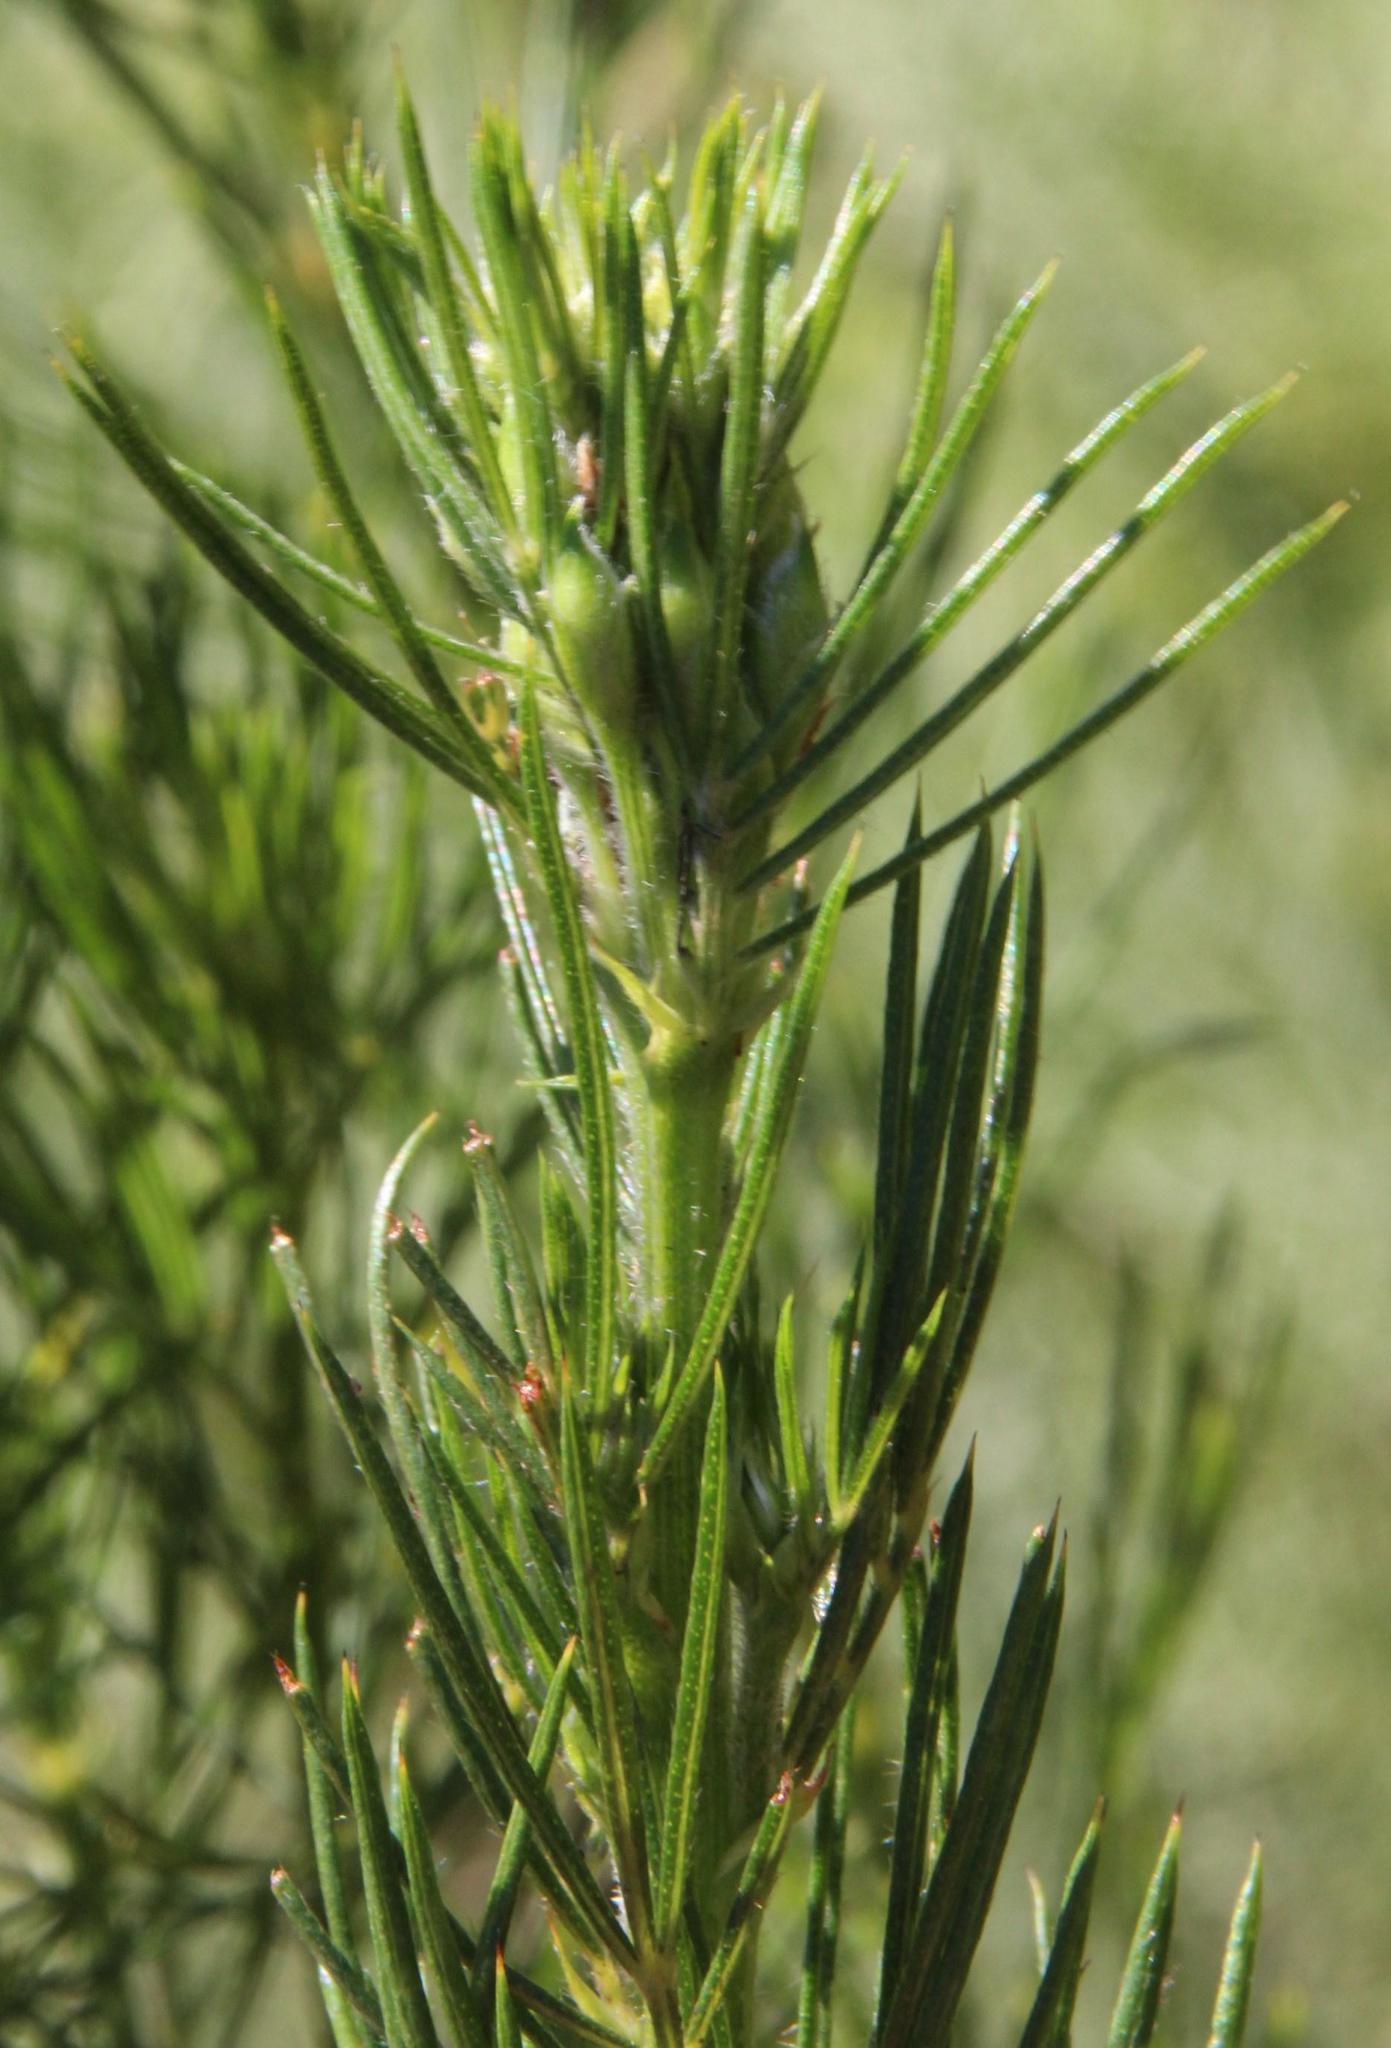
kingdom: Plantae
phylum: Tracheophyta
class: Magnoliopsida
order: Fabales
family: Fabaceae
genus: Psoralea
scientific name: Psoralea pinnata
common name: African scurfpea
